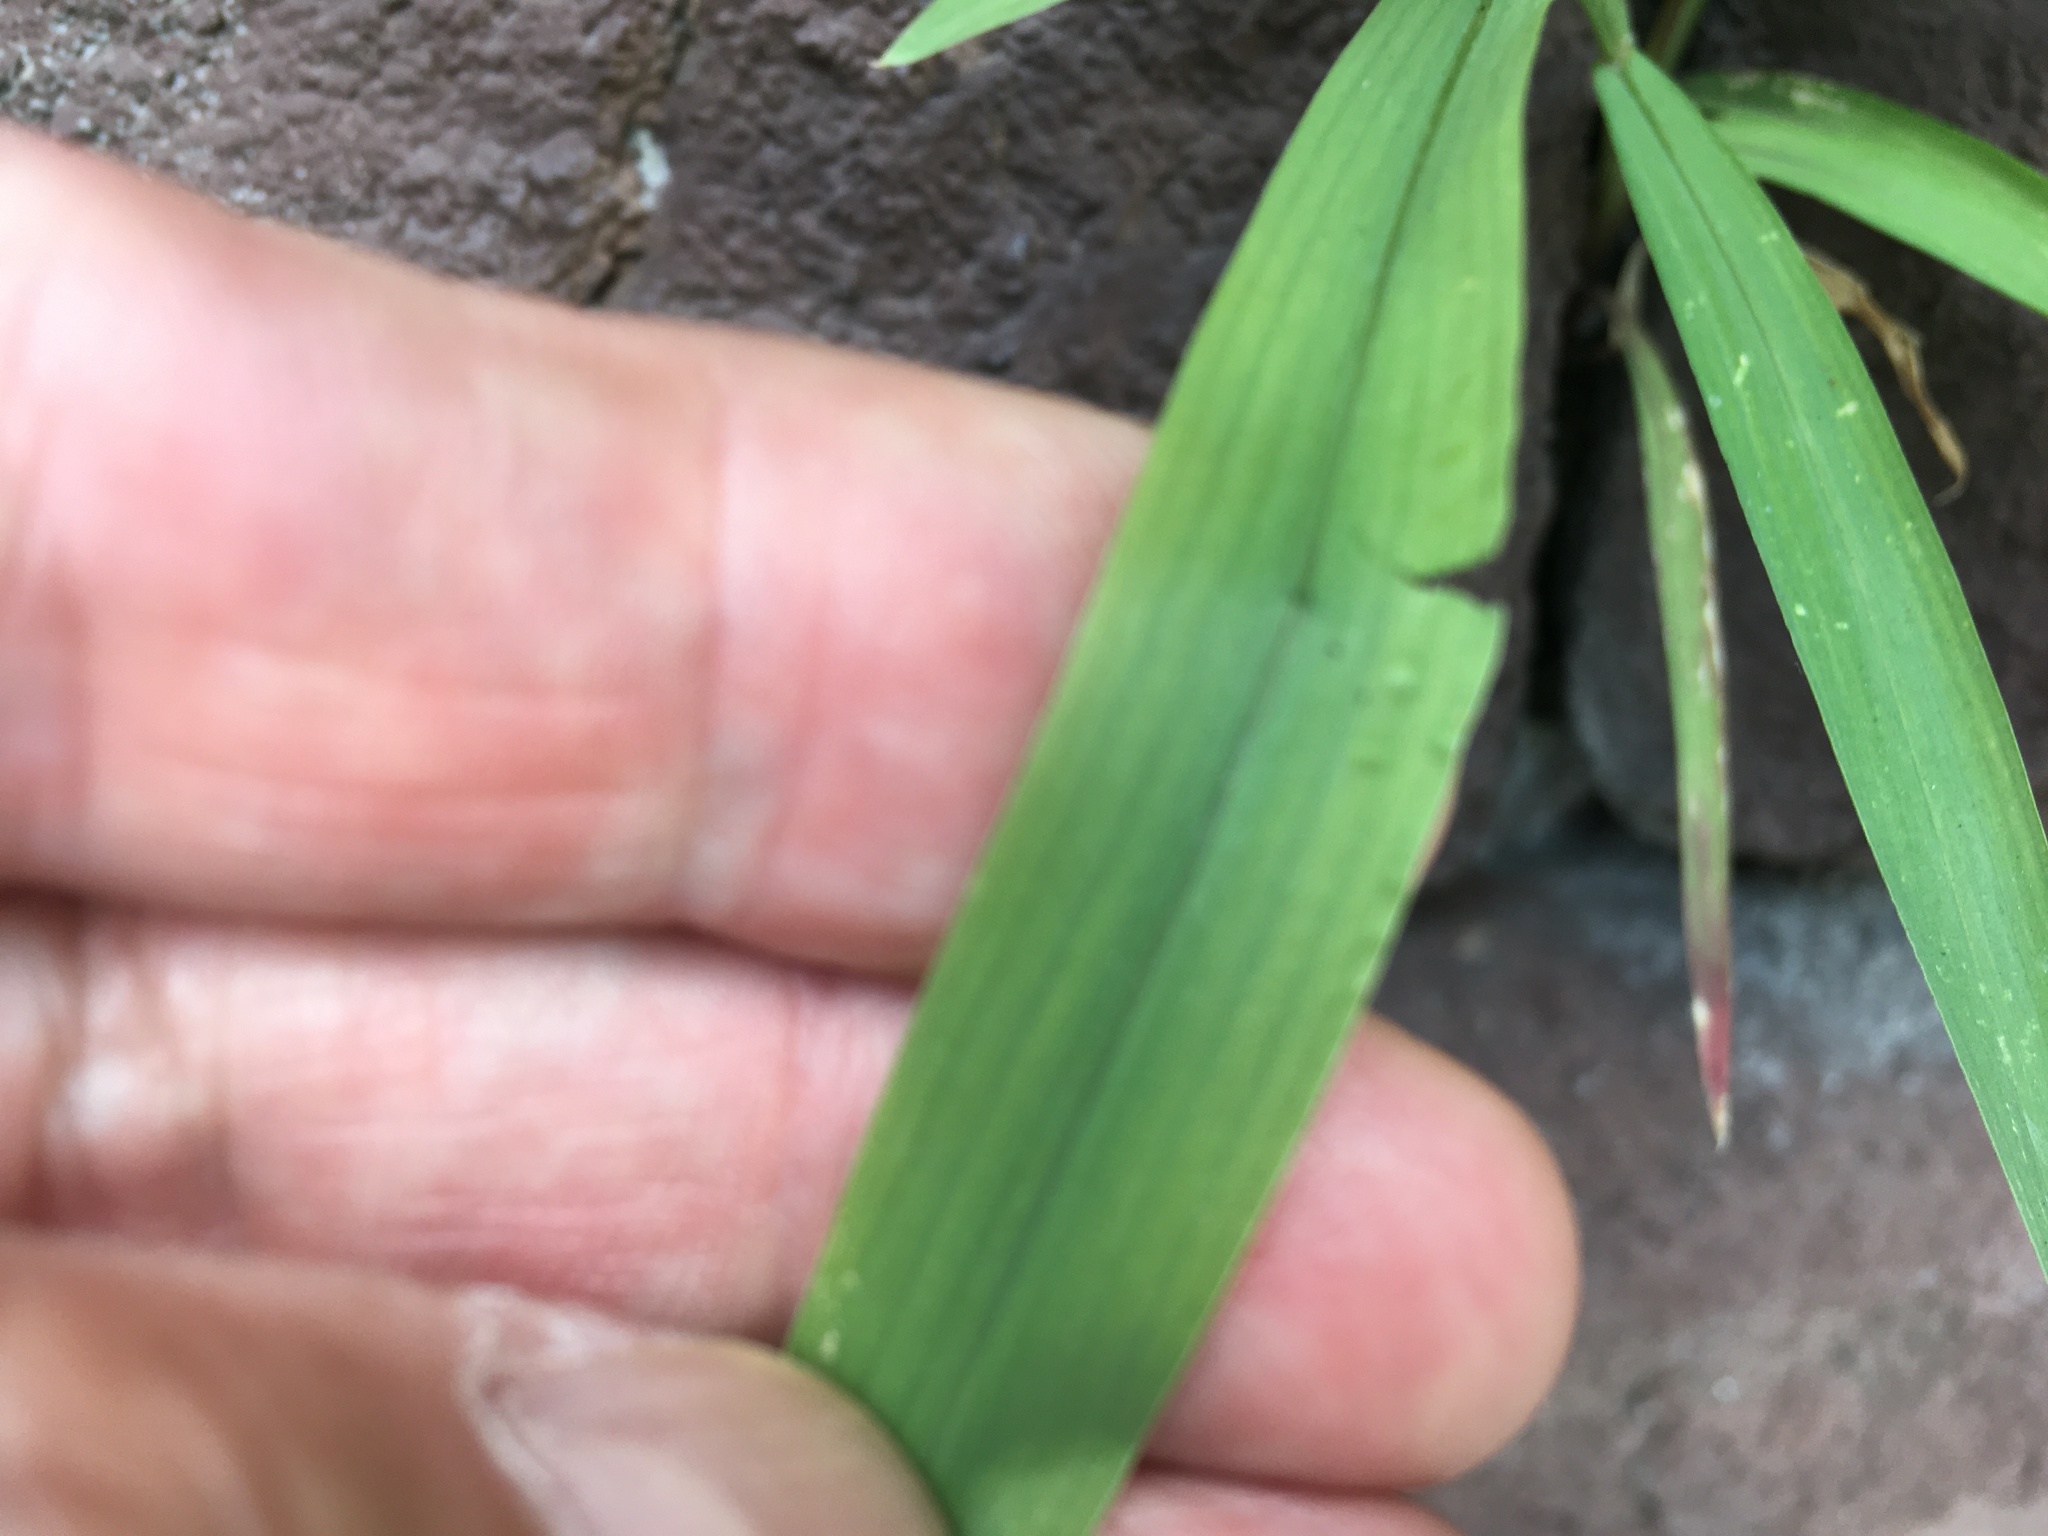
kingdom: Plantae
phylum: Tracheophyta
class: Liliopsida
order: Poales
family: Poaceae
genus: Setaria
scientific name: Setaria viridis
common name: Green bristlegrass
